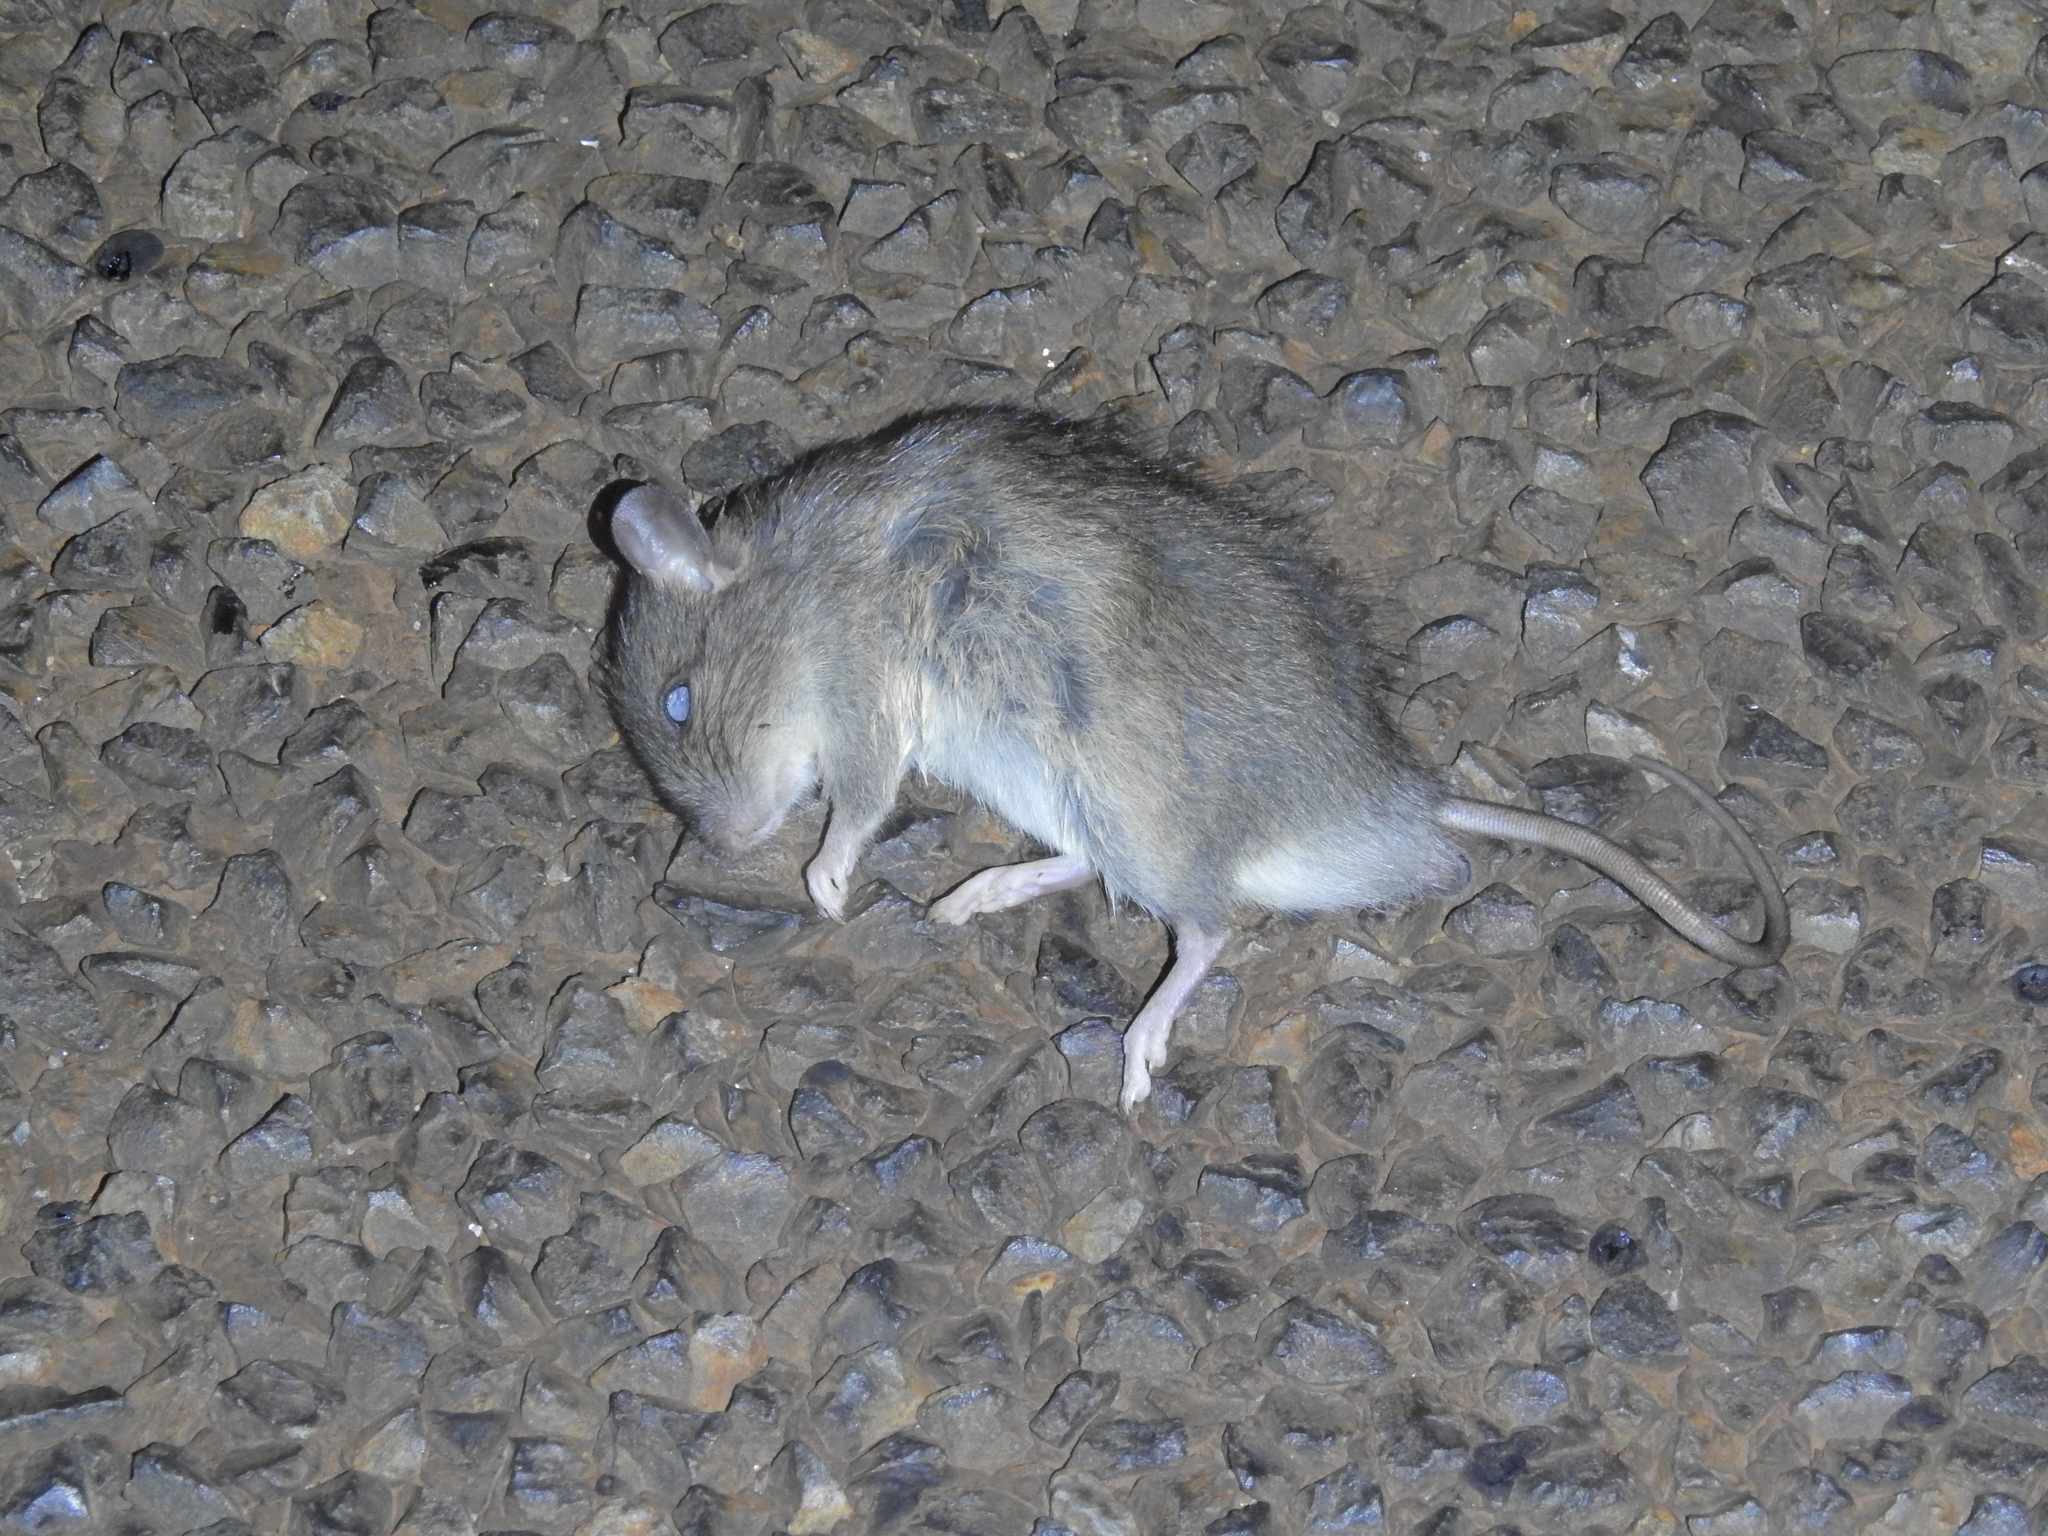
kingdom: Animalia
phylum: Chordata
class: Mammalia
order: Rodentia
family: Muridae
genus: Rattus
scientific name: Rattus fuscipes
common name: Australian bush rat
